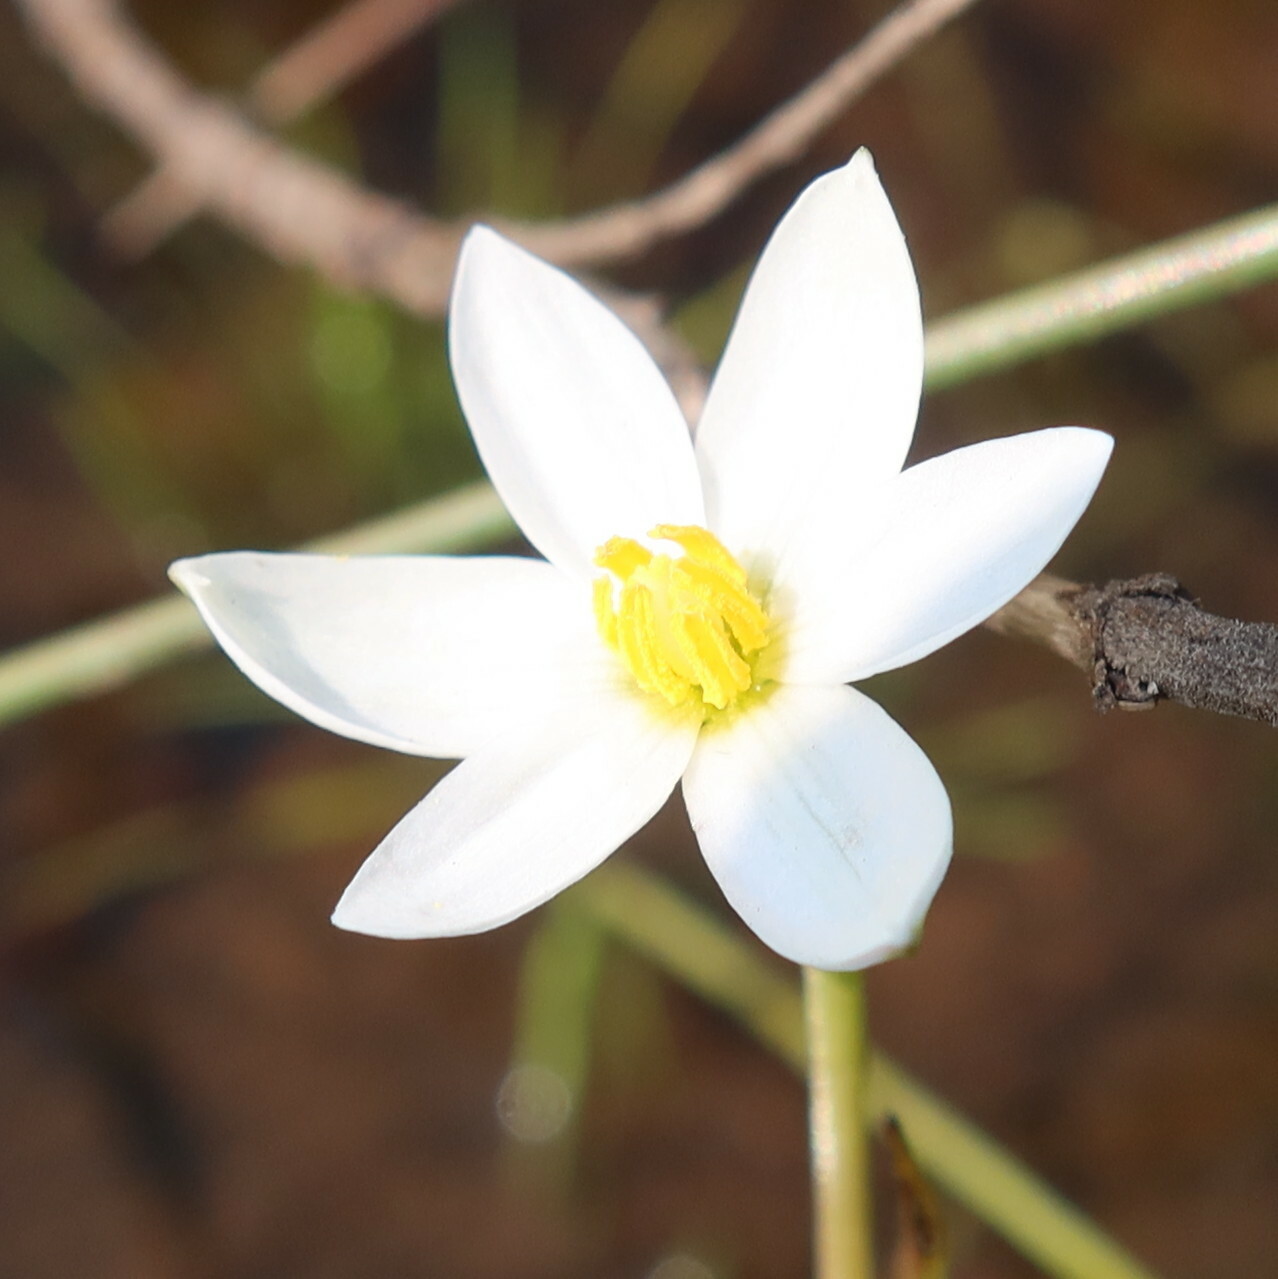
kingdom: Plantae
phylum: Tracheophyta
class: Liliopsida
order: Asparagales
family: Hypoxidaceae
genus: Pauridia
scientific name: Pauridia aquatica
